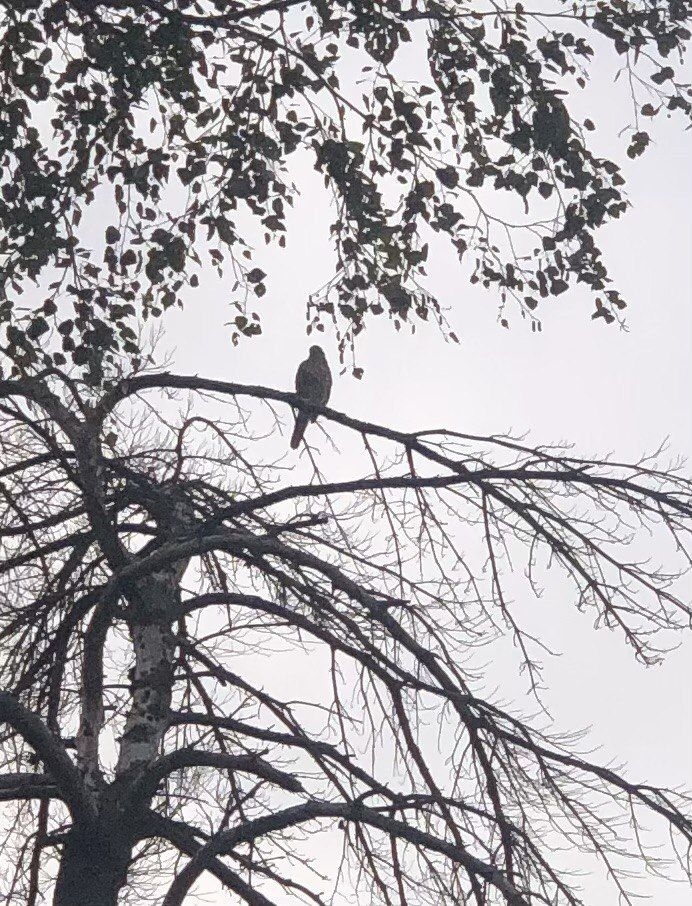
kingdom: Animalia
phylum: Chordata
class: Aves
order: Accipitriformes
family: Accipitridae
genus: Pernis
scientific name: Pernis apivorus
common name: European honey buzzard
